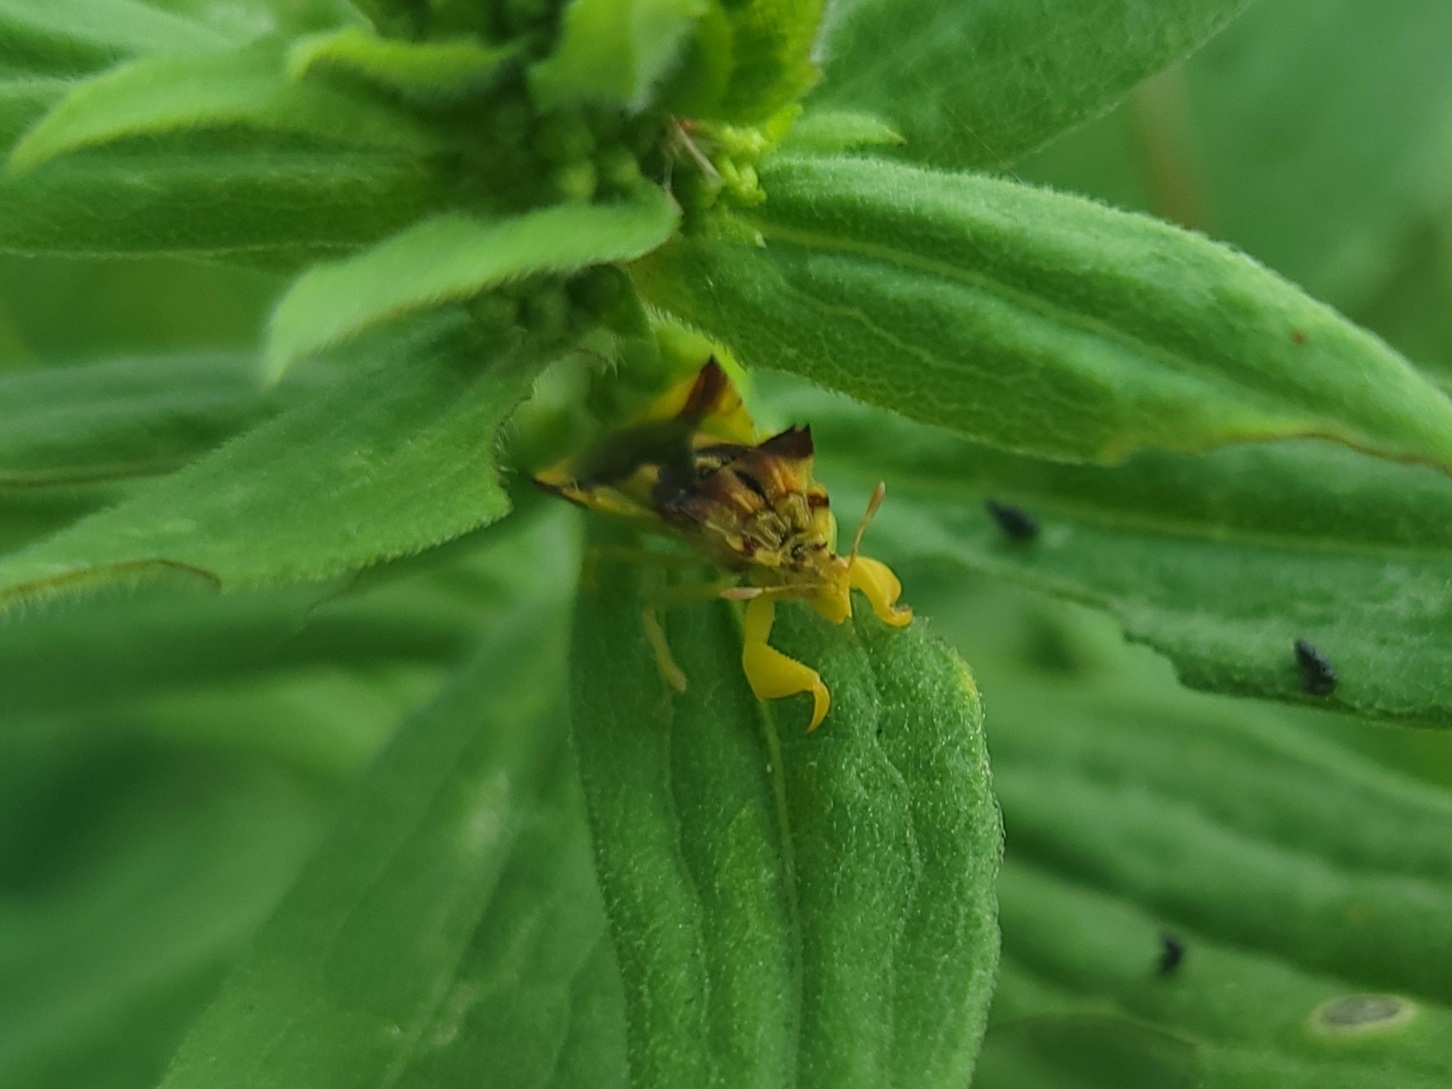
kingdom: Animalia
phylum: Arthropoda
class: Insecta
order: Hemiptera
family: Reduviidae
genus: Phymata
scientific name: Phymata americana
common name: Jagged ambush bug
